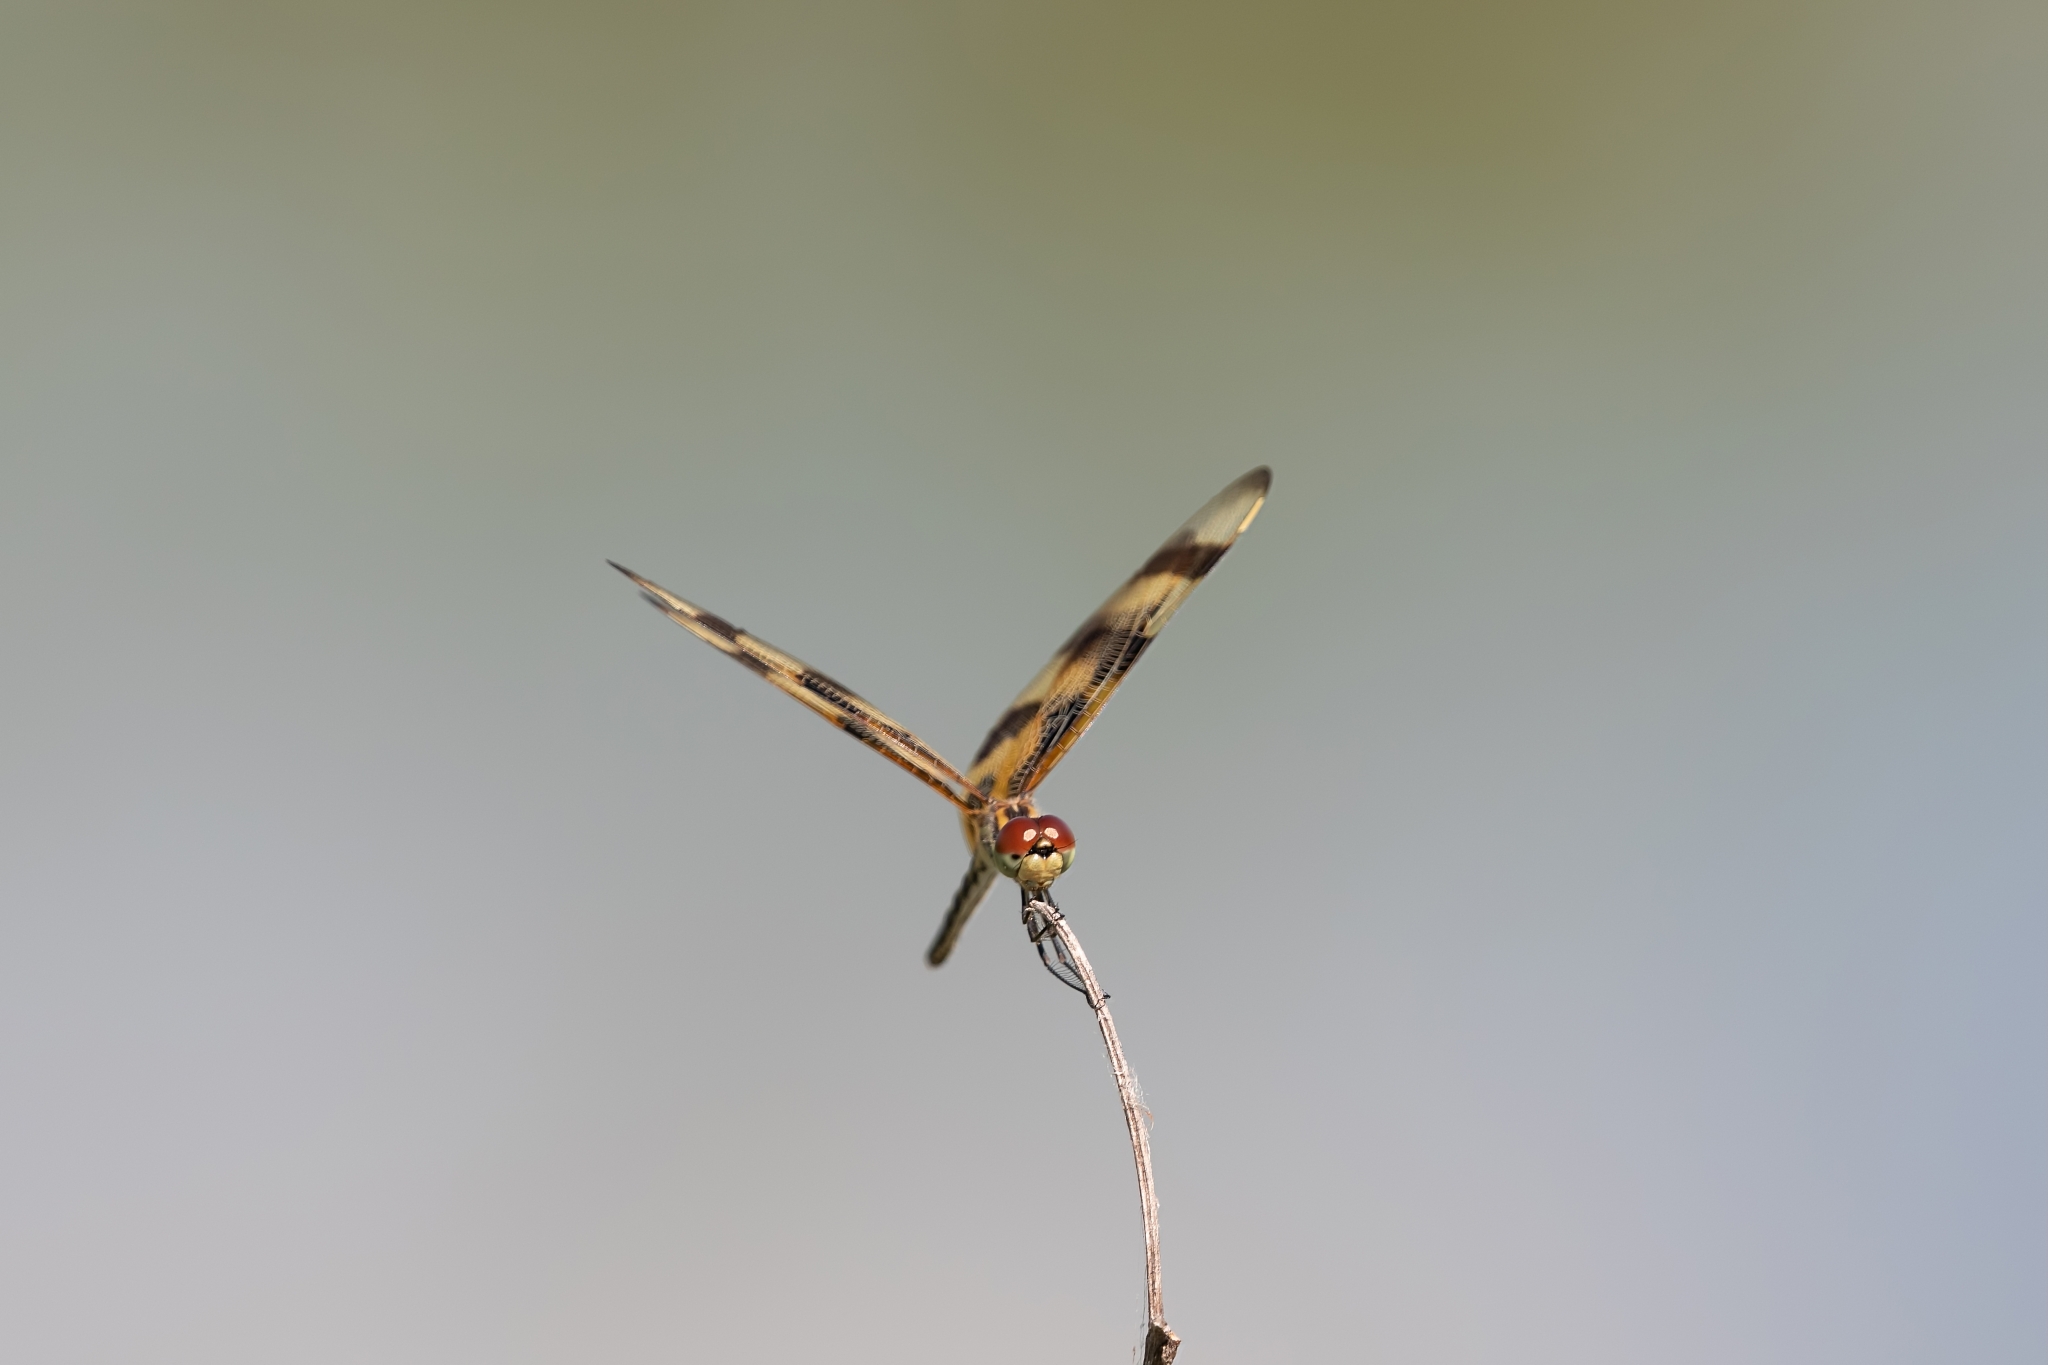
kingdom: Animalia
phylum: Arthropoda
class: Insecta
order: Odonata
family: Libellulidae
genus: Celithemis
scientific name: Celithemis eponina
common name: Halloween pennant
